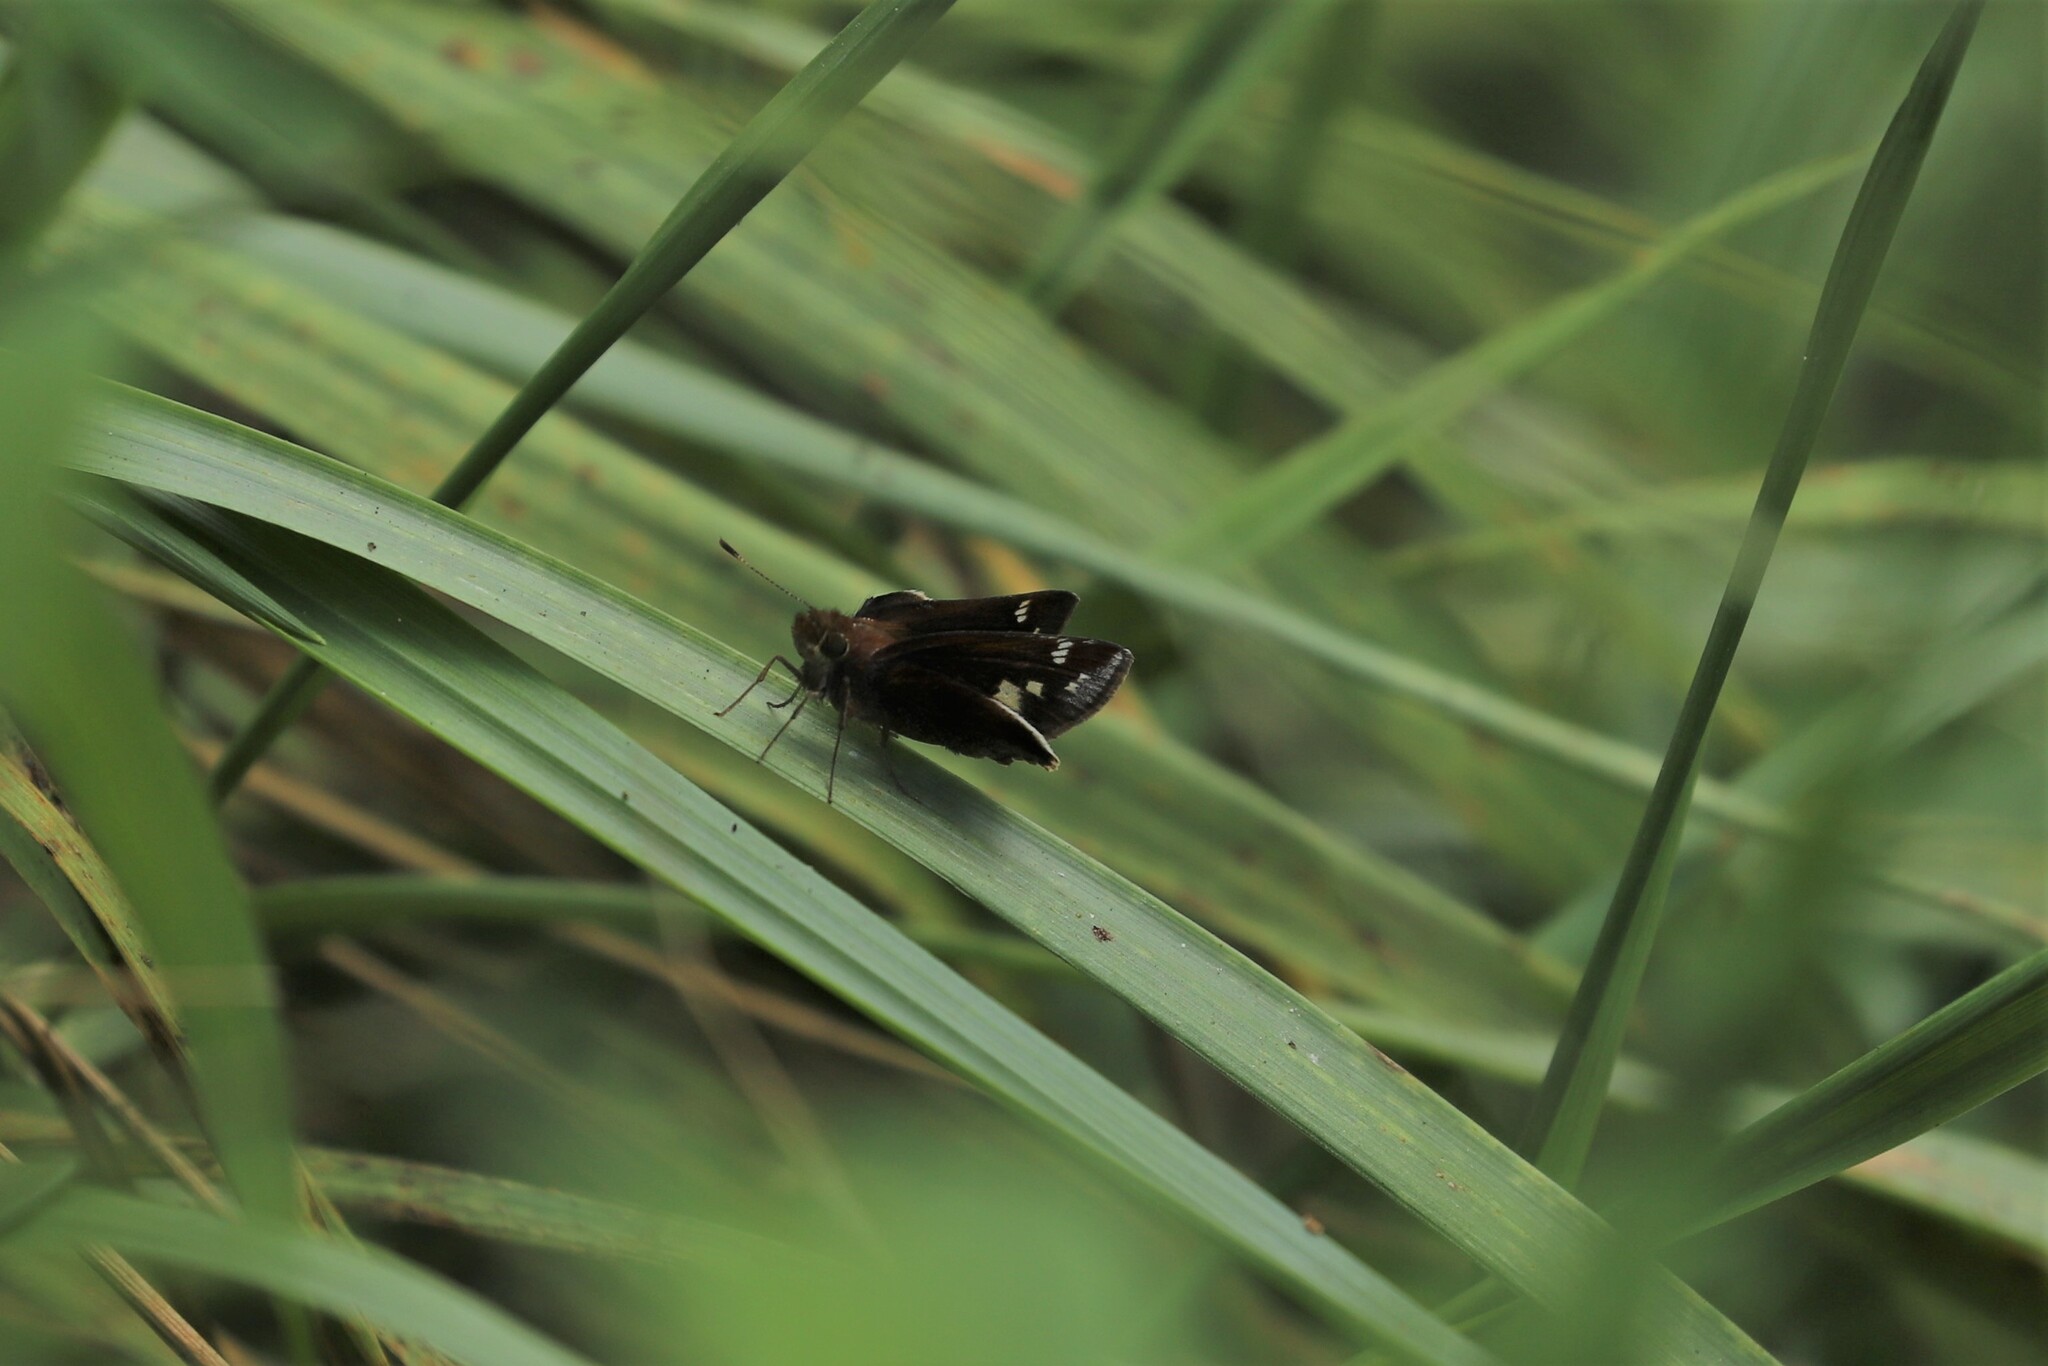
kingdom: Animalia
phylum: Arthropoda
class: Insecta
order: Lepidoptera
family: Hesperiidae
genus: Lon
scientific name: Lon zabulon
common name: Zabulon skipper
